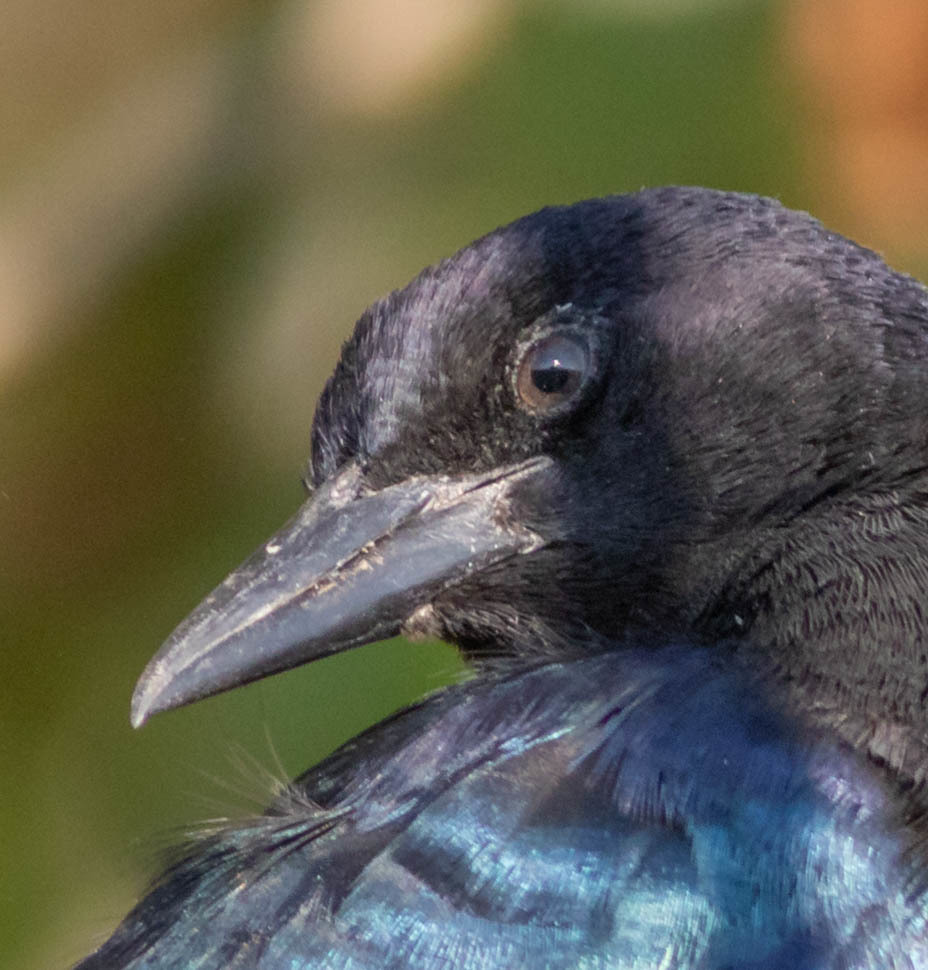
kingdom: Animalia
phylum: Chordata
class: Aves
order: Passeriformes
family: Icteridae
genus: Quiscalus
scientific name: Quiscalus major
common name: Boat-tailed grackle
